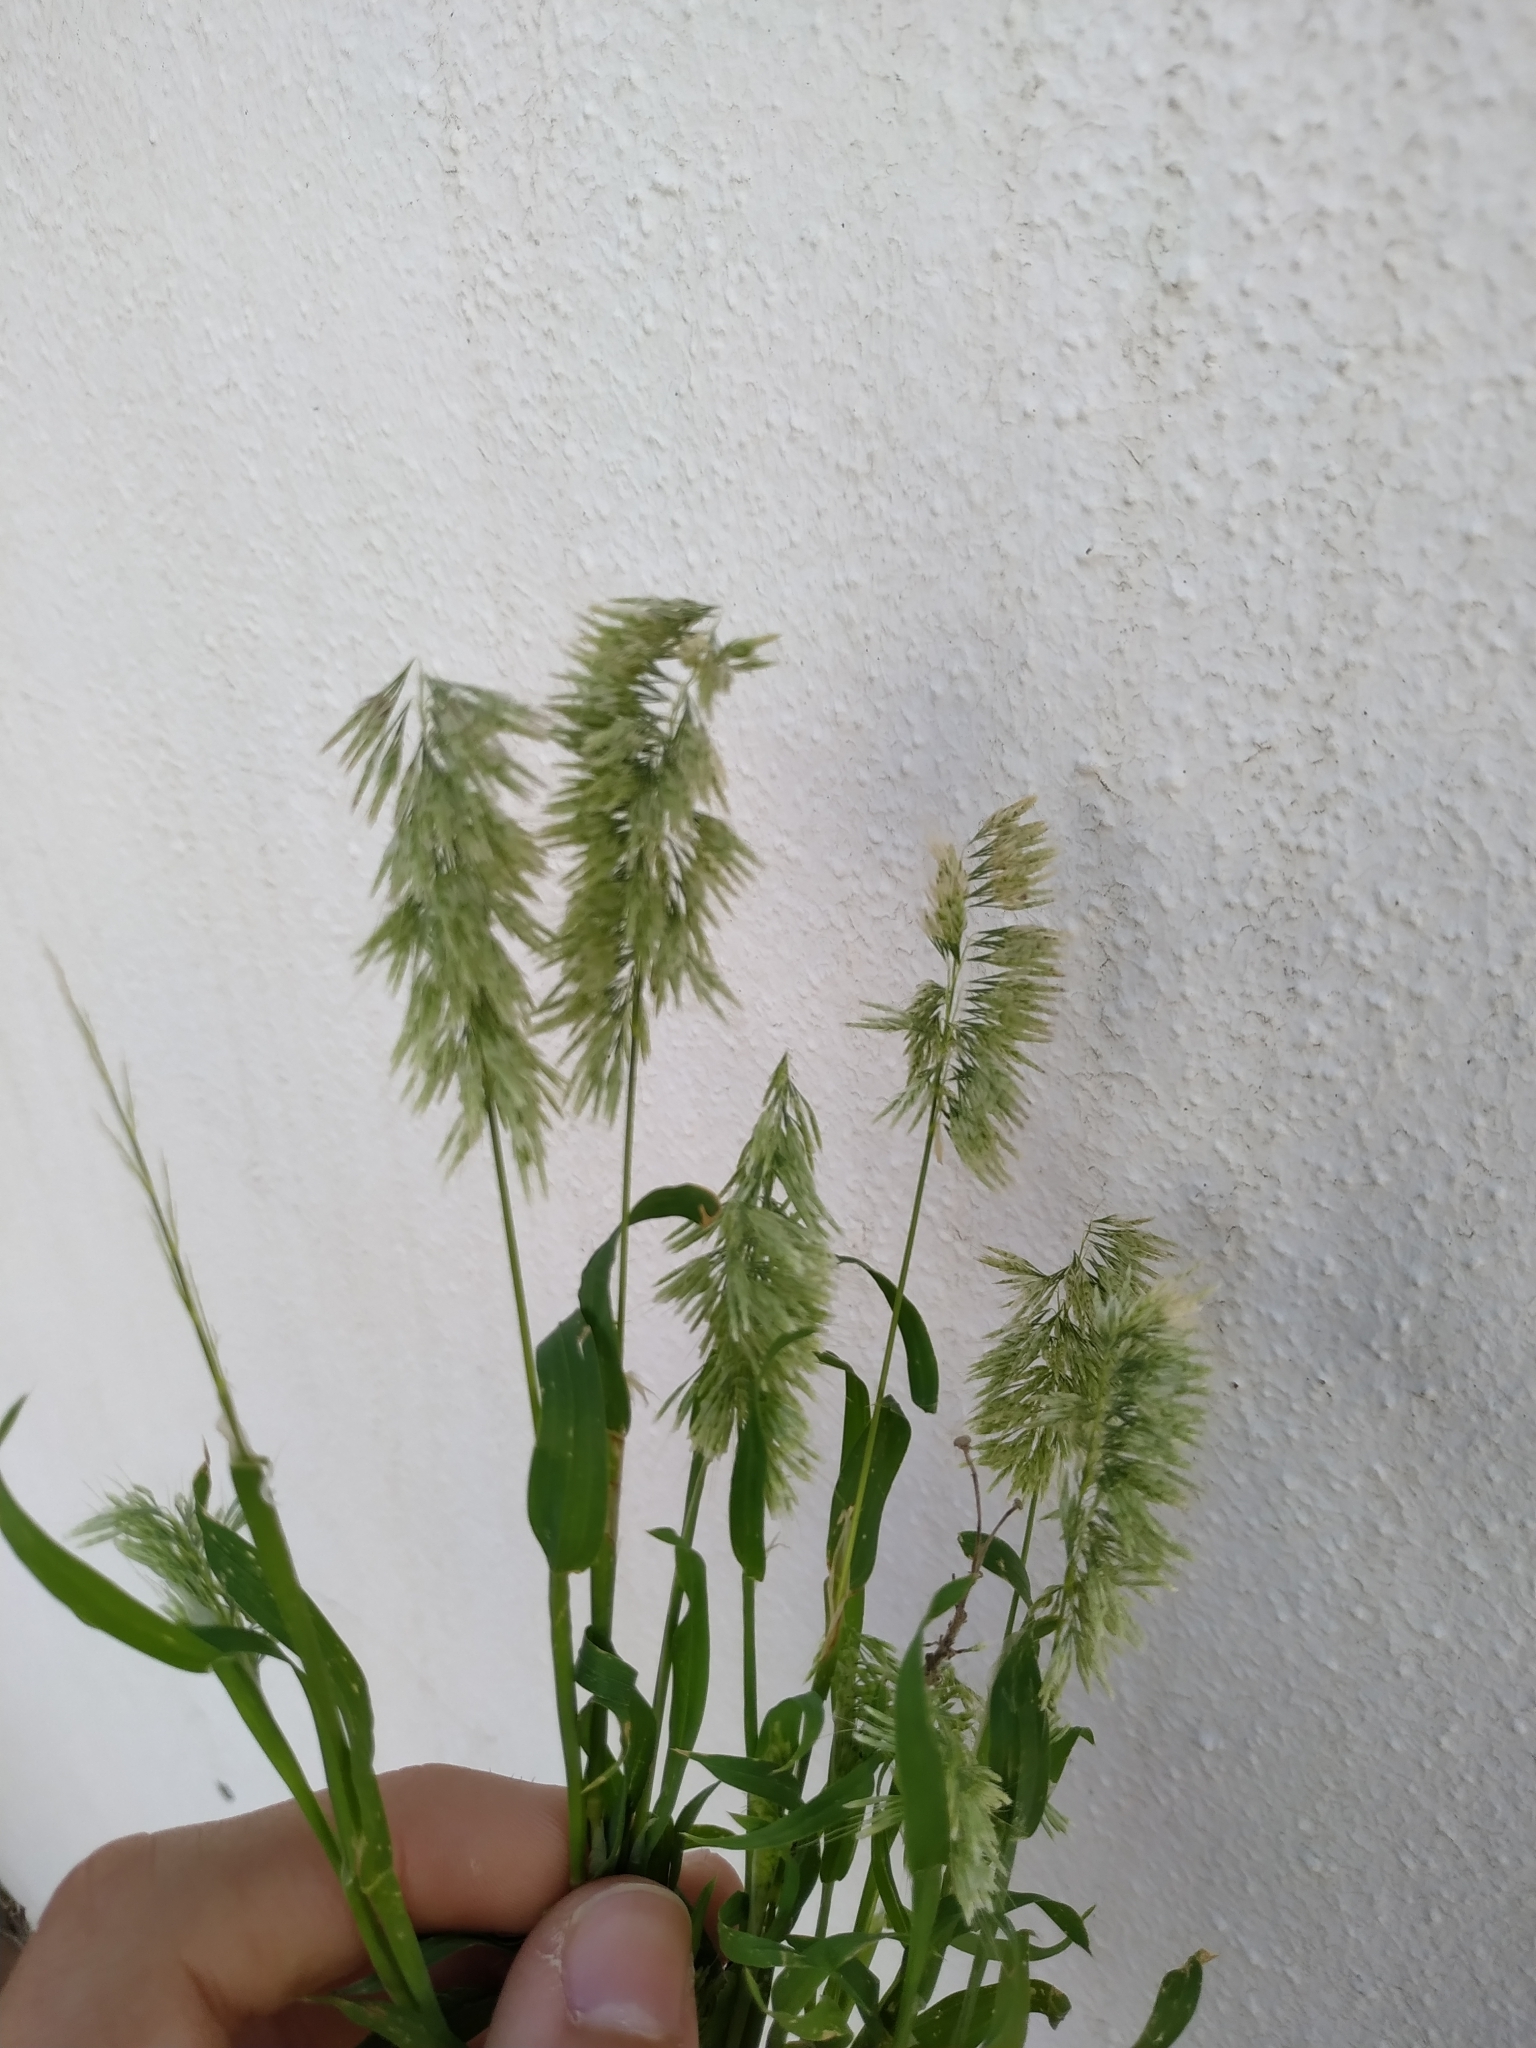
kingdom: Plantae
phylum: Tracheophyta
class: Liliopsida
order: Poales
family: Poaceae
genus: Lamarckia
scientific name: Lamarckia aurea
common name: Golden dog's-tail
